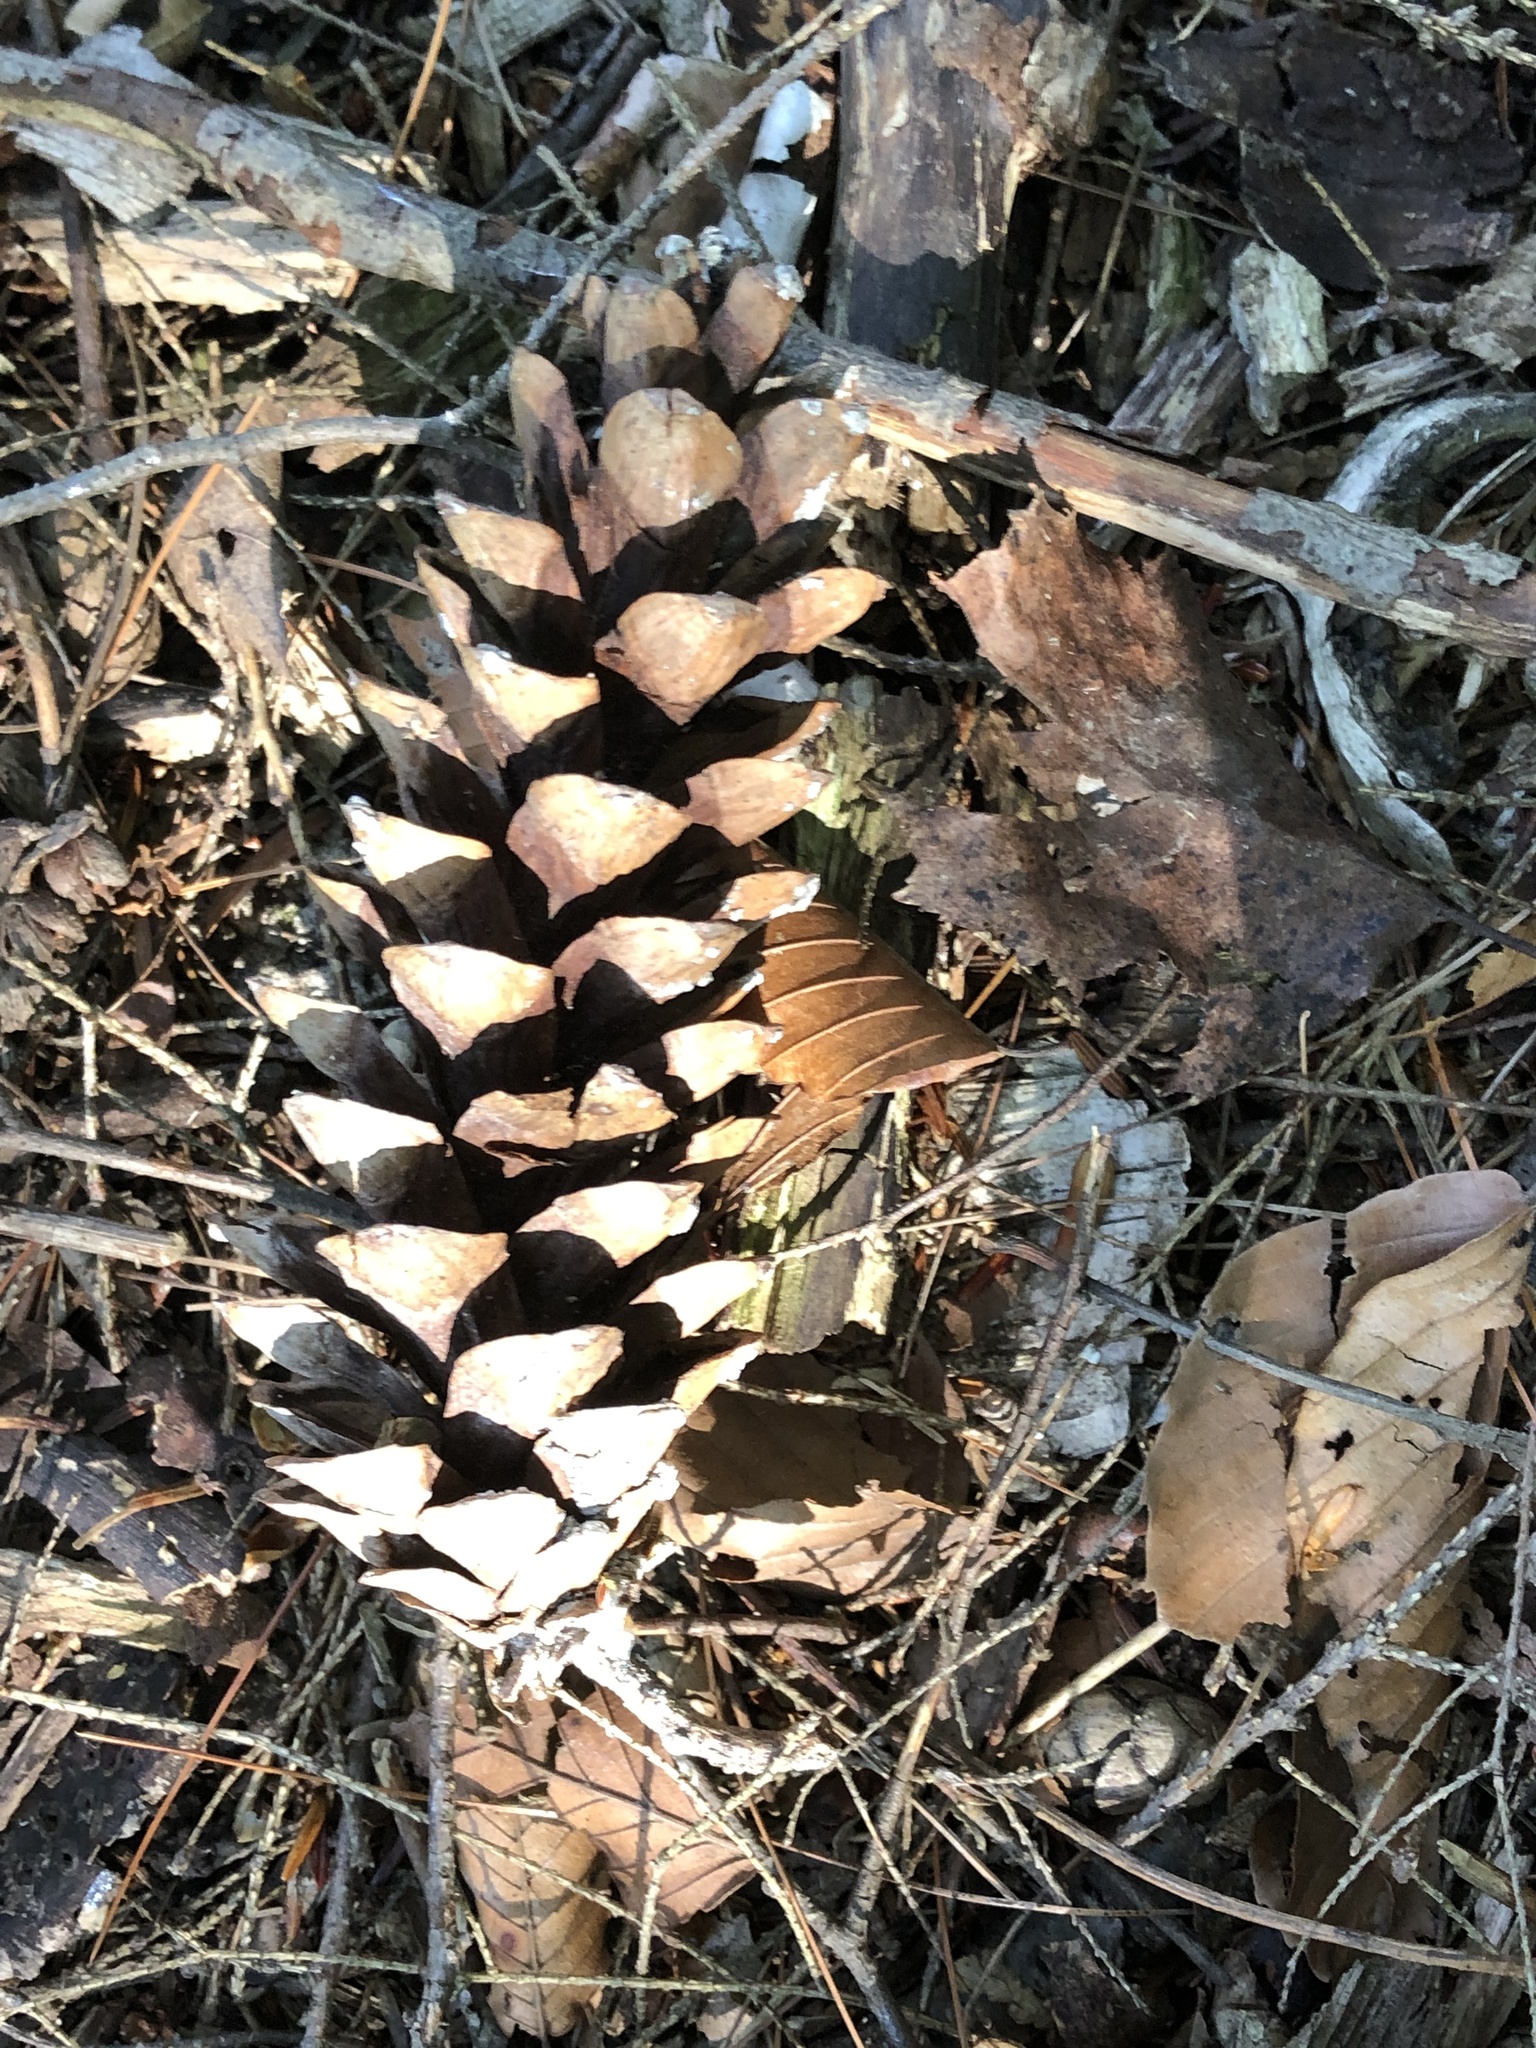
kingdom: Plantae
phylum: Tracheophyta
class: Pinopsida
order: Pinales
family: Pinaceae
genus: Pinus
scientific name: Pinus strobus
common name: Weymouth pine
